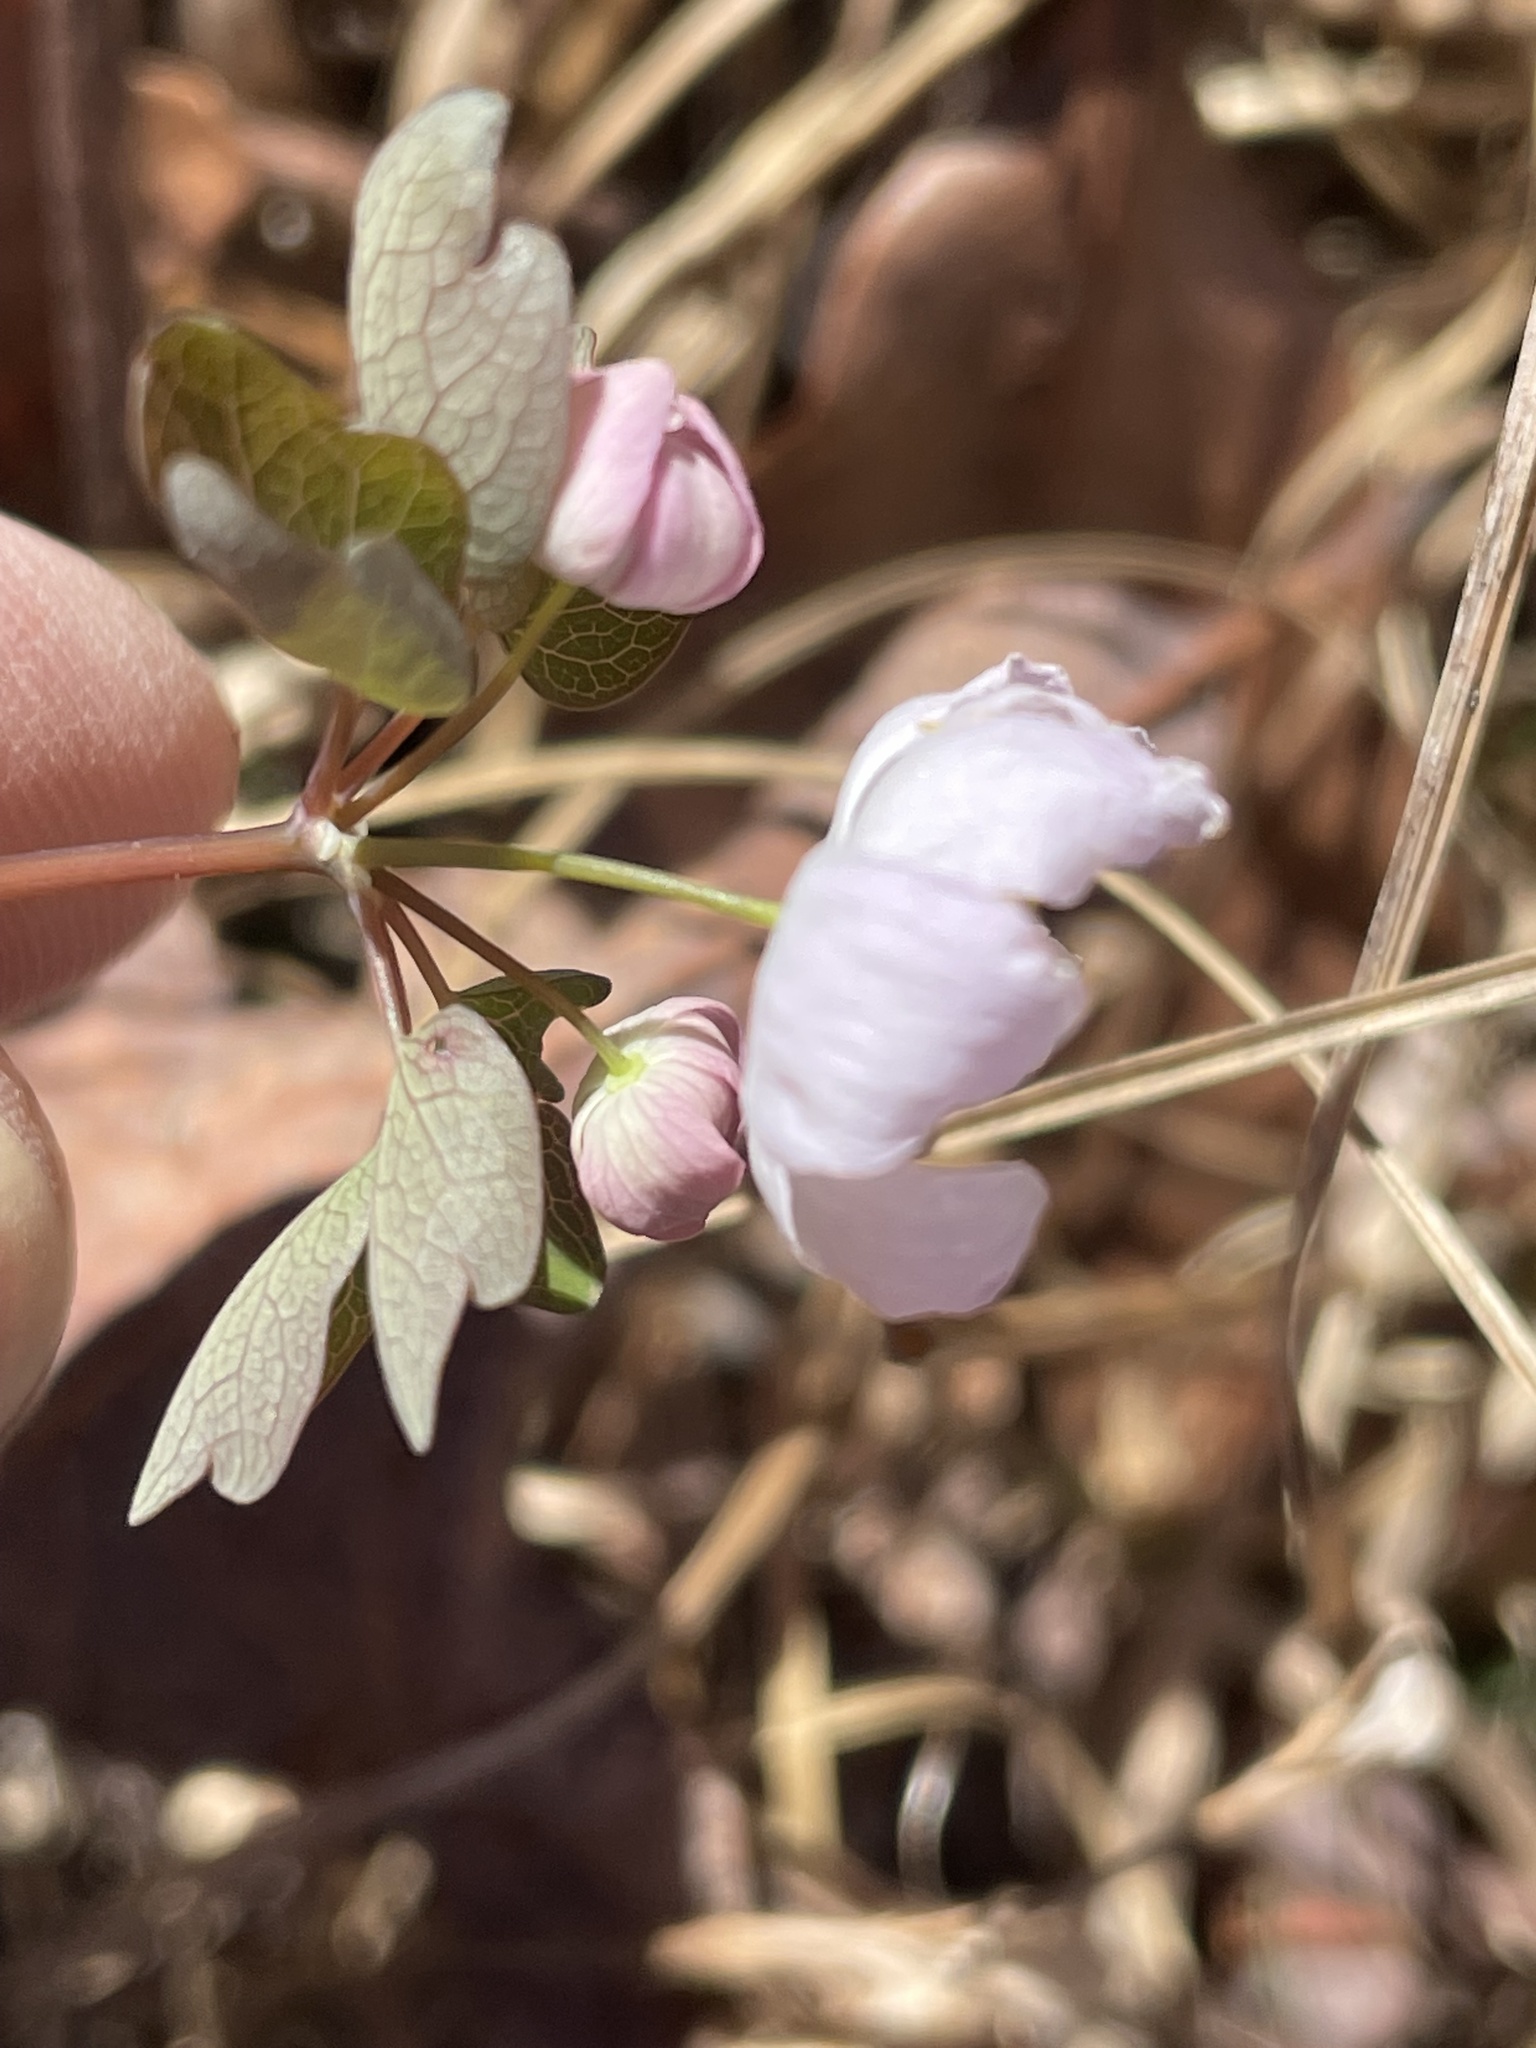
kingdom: Plantae
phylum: Tracheophyta
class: Magnoliopsida
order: Ranunculales
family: Ranunculaceae
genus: Thalictrum
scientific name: Thalictrum thalictroides
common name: Rue-anemone
